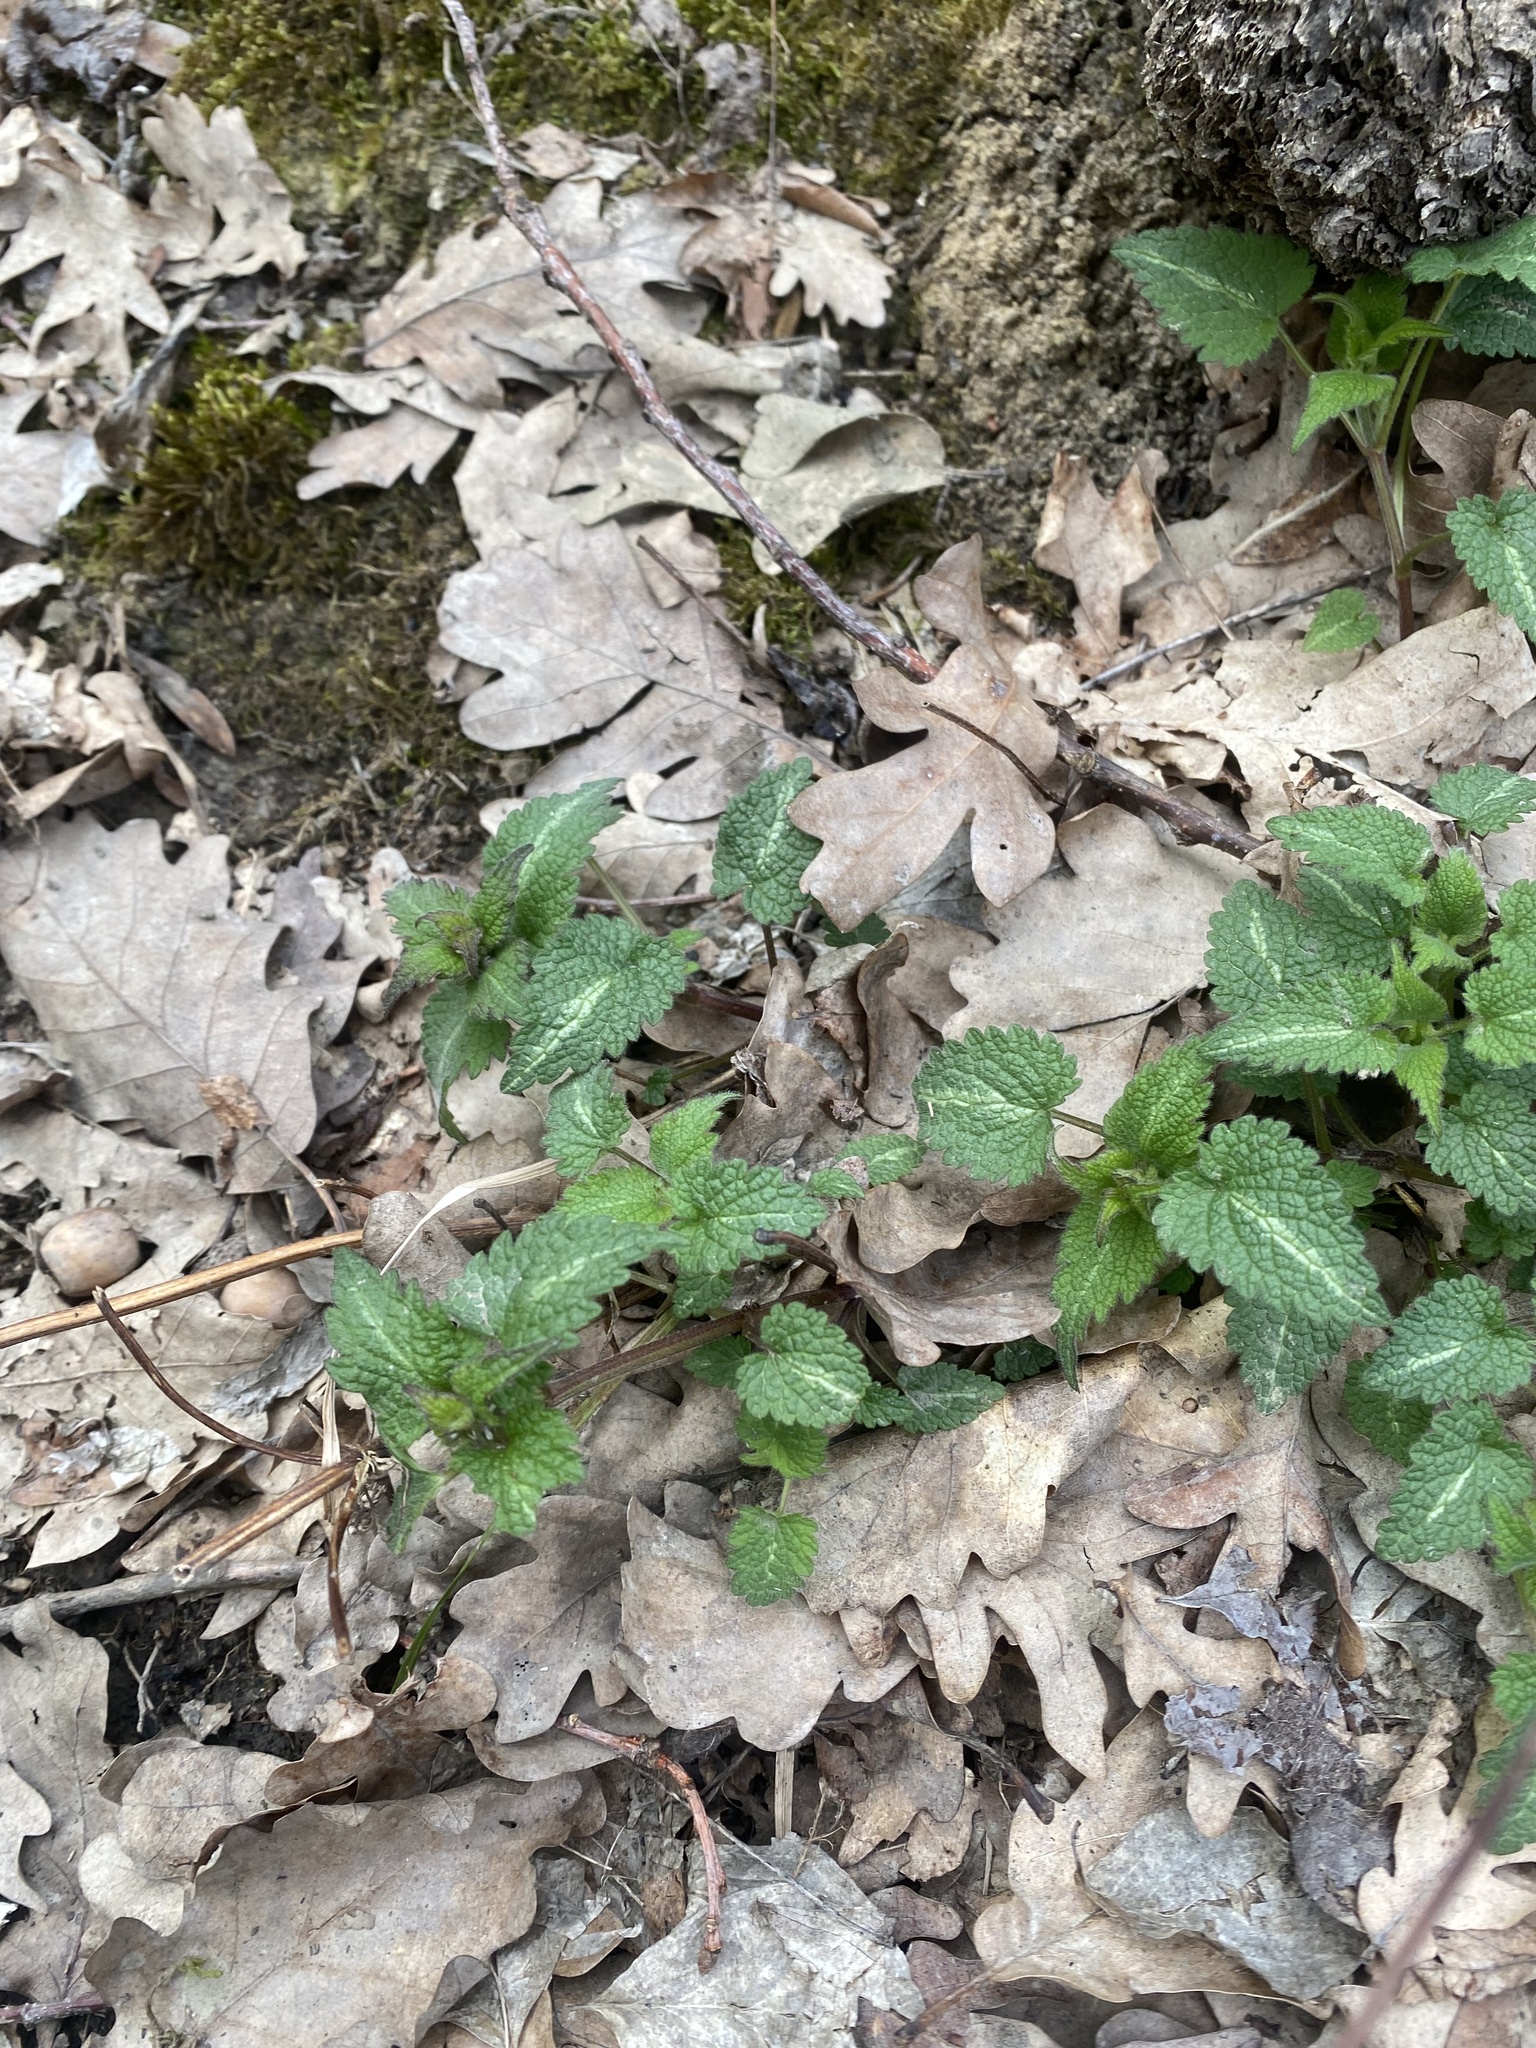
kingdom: Plantae
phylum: Tracheophyta
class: Magnoliopsida
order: Lamiales
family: Lamiaceae
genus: Lamium
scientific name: Lamium maculatum
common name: Spotted dead-nettle
